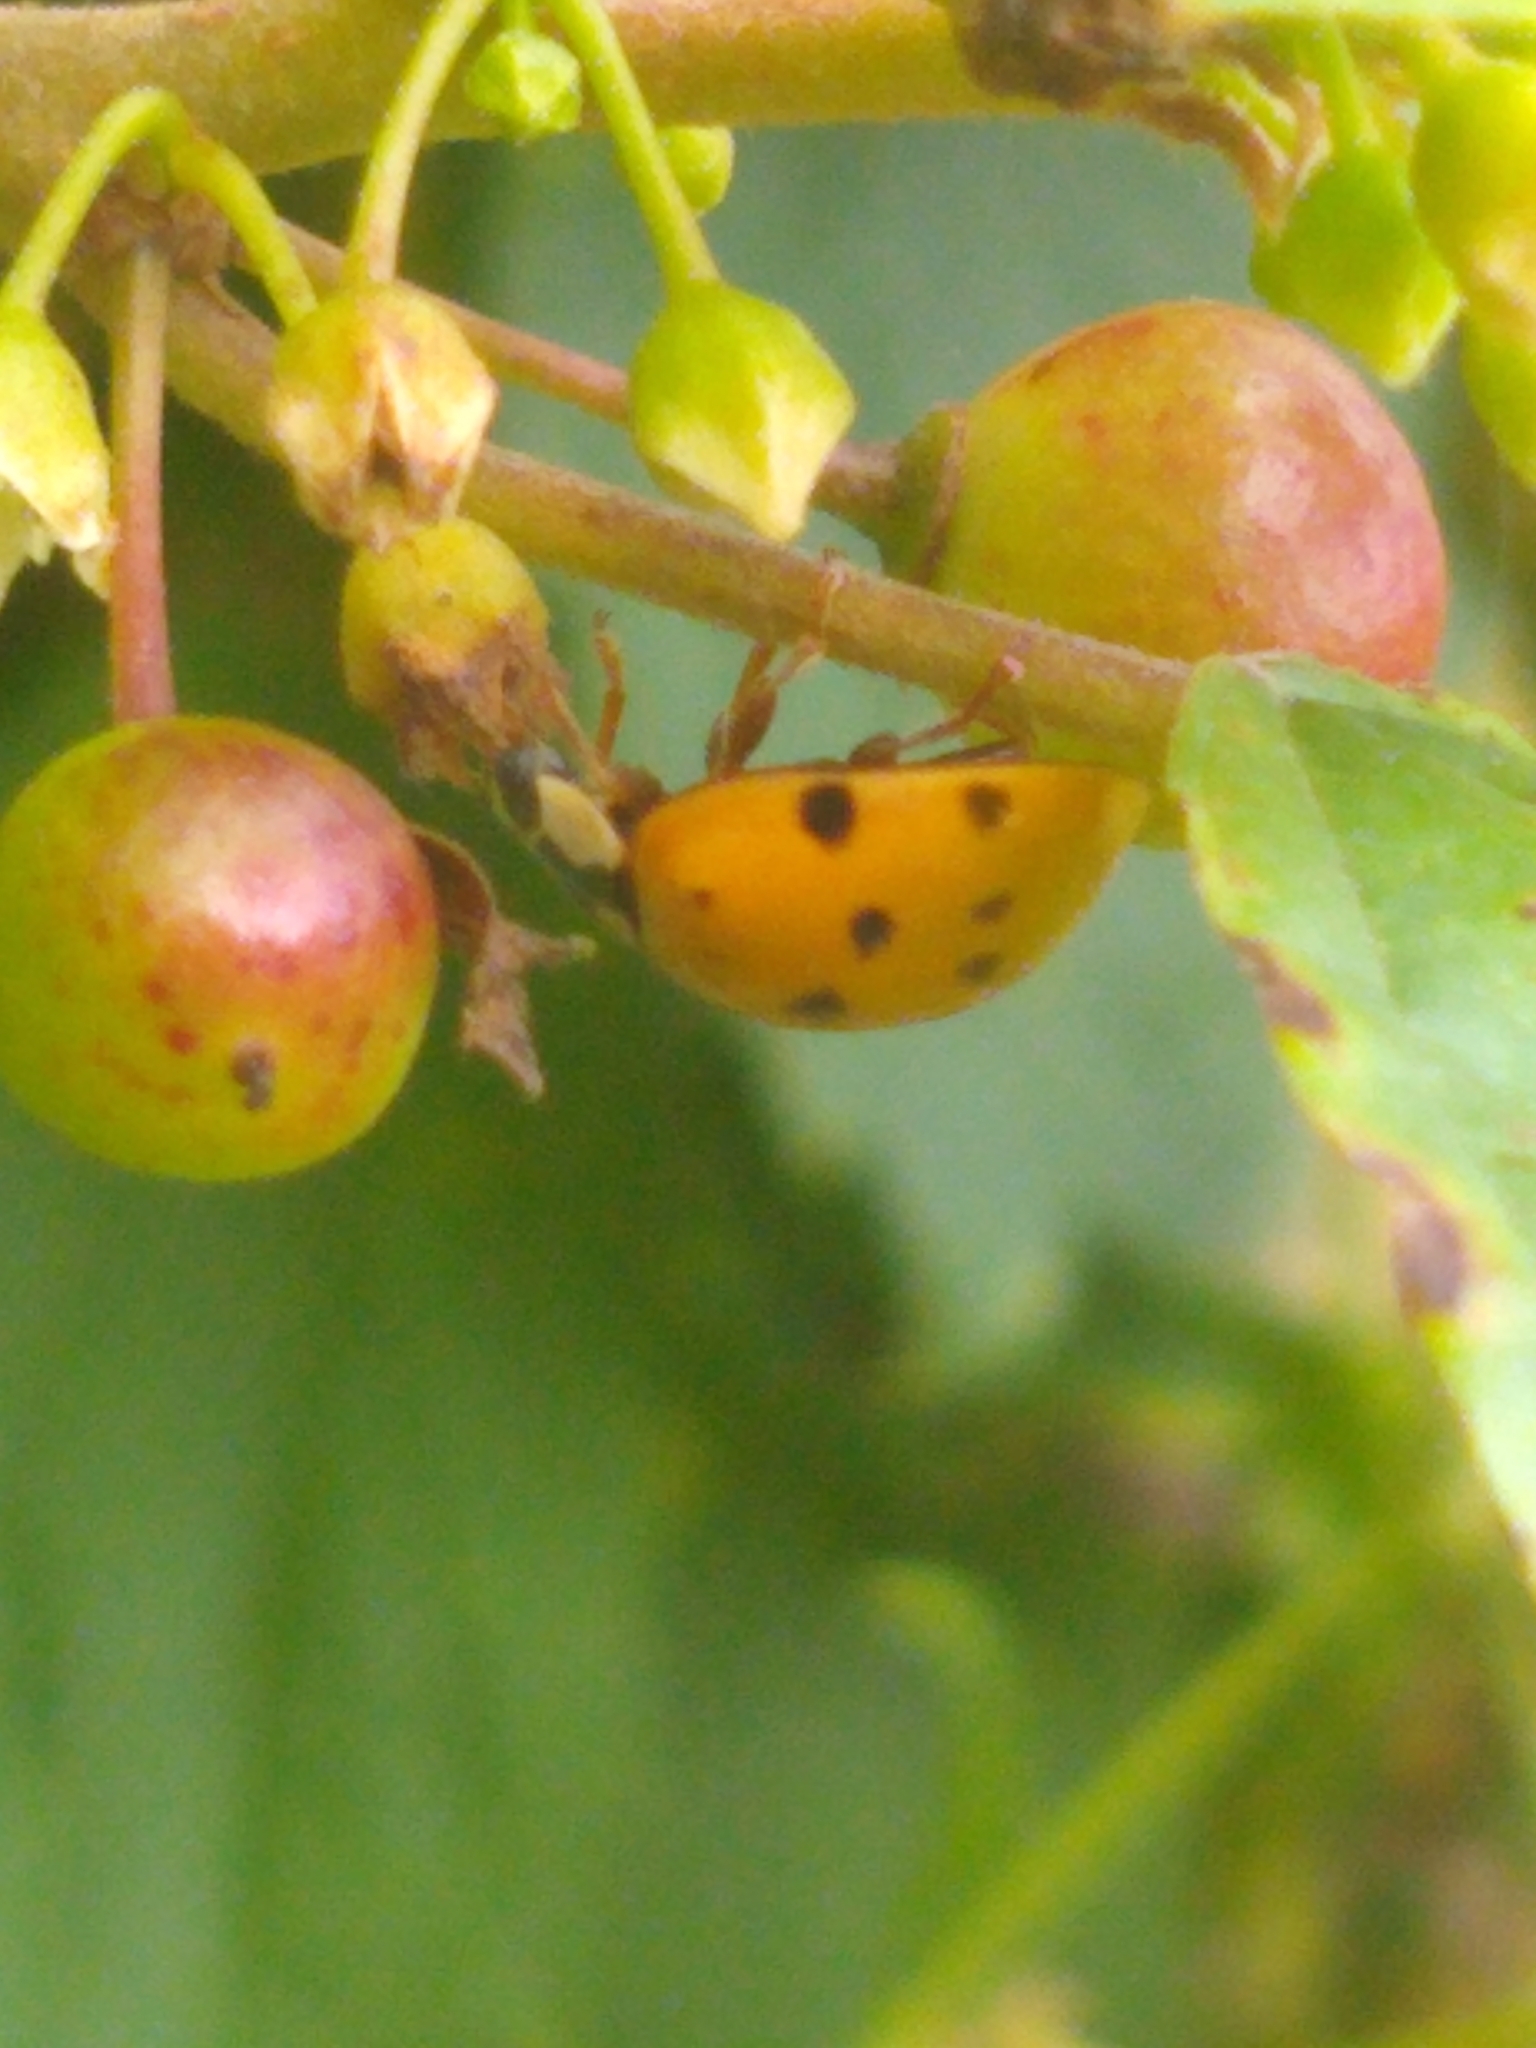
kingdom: Animalia
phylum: Arthropoda
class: Insecta
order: Coleoptera
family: Coccinellidae
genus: Harmonia
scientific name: Harmonia axyridis
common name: Harlequin ladybird
